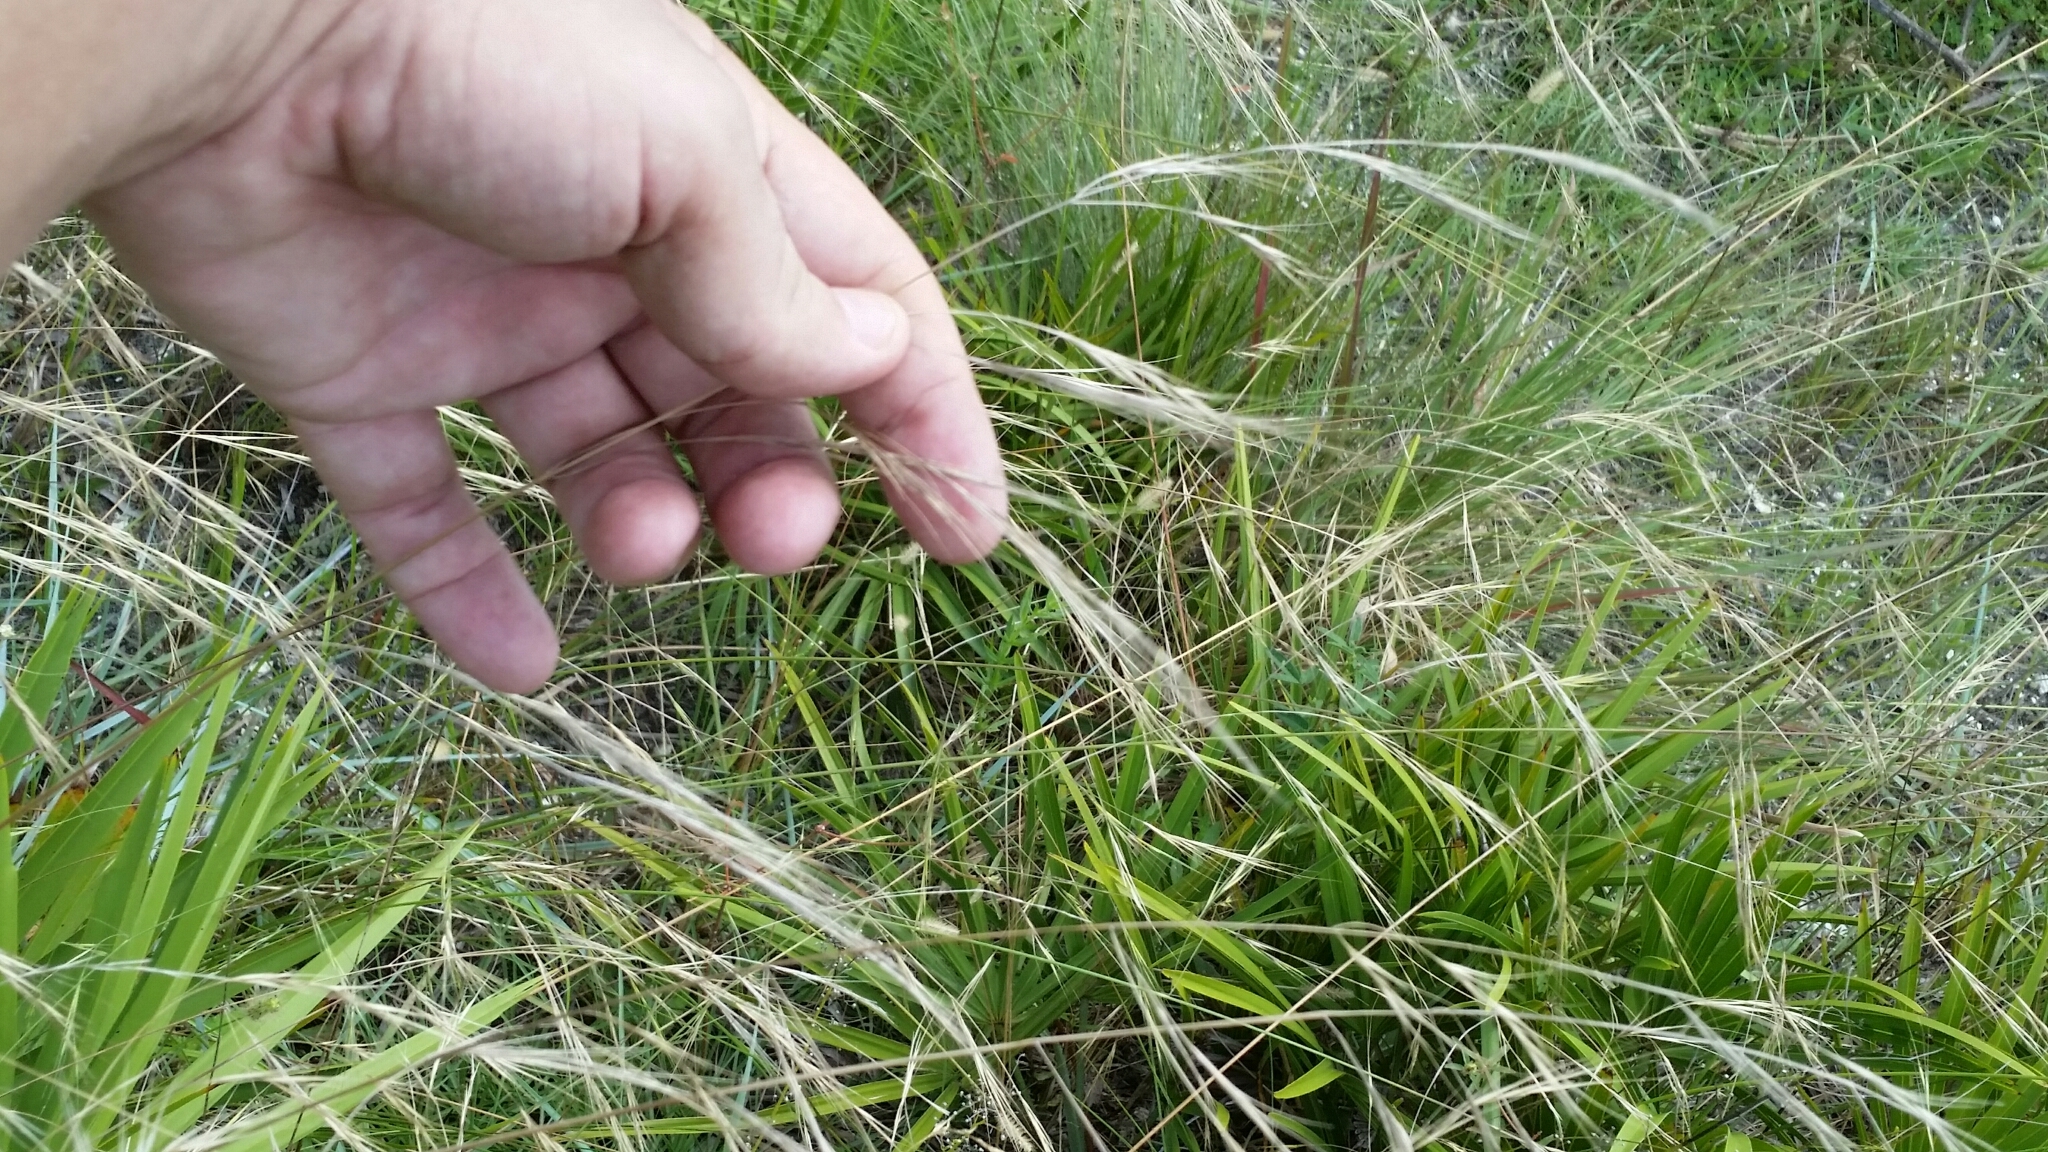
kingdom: Plantae
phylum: Tracheophyta
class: Liliopsida
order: Poales
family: Poaceae
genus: Aristida
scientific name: Aristida patula
